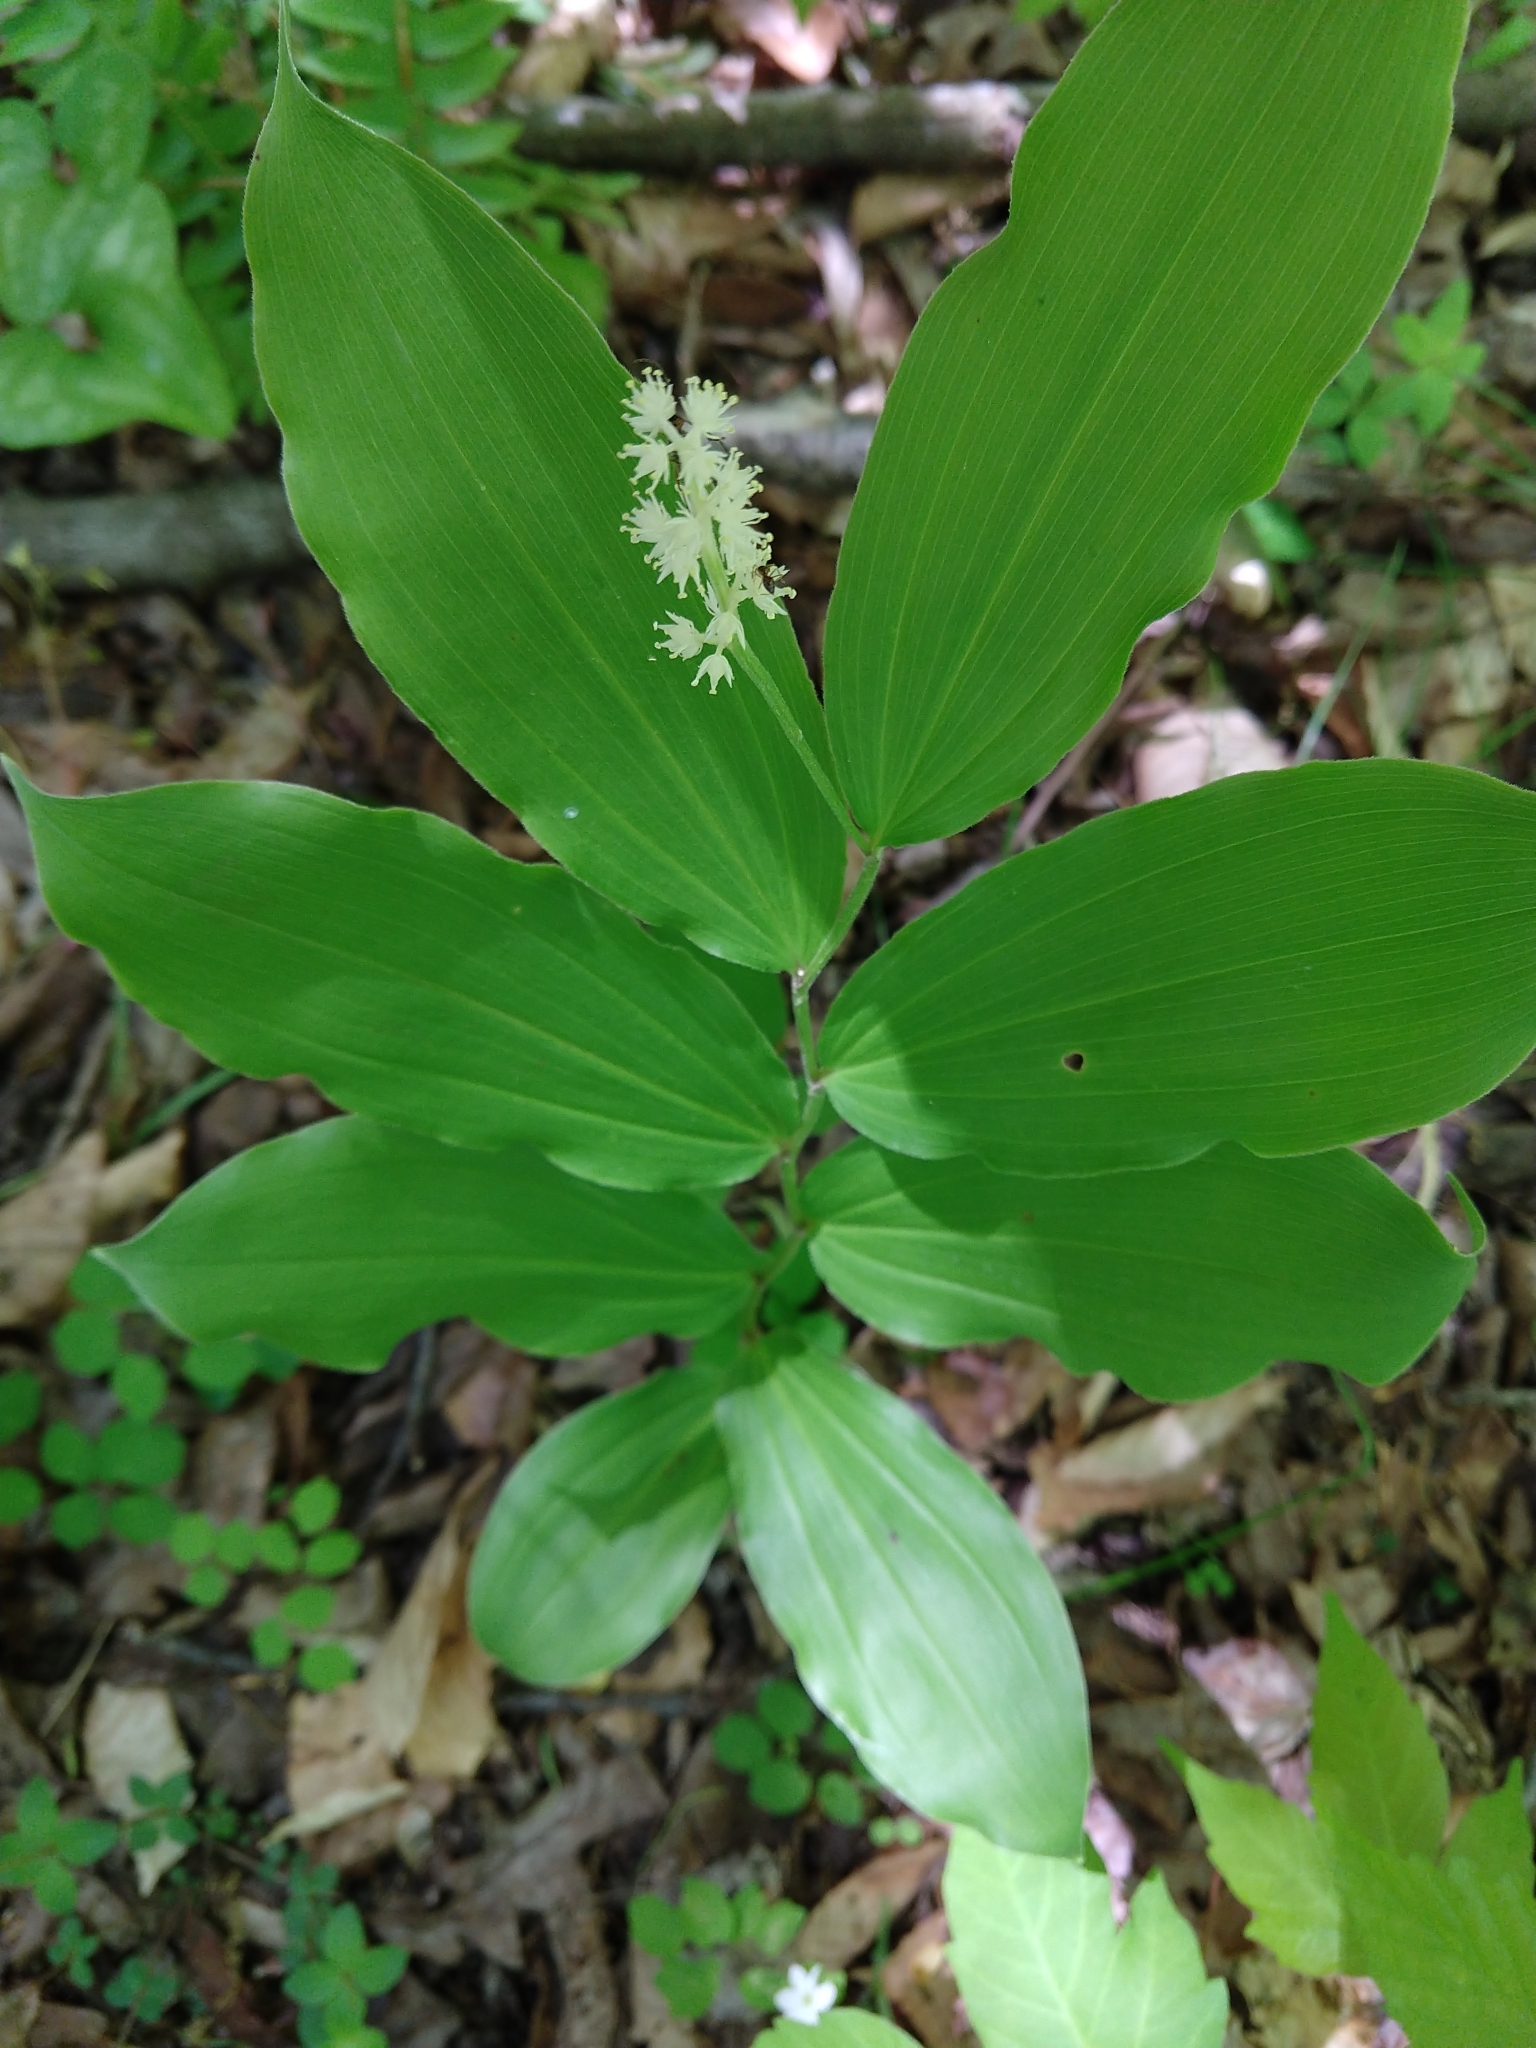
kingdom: Plantae
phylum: Tracheophyta
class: Liliopsida
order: Asparagales
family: Asparagaceae
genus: Maianthemum
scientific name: Maianthemum racemosum
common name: False spikenard
